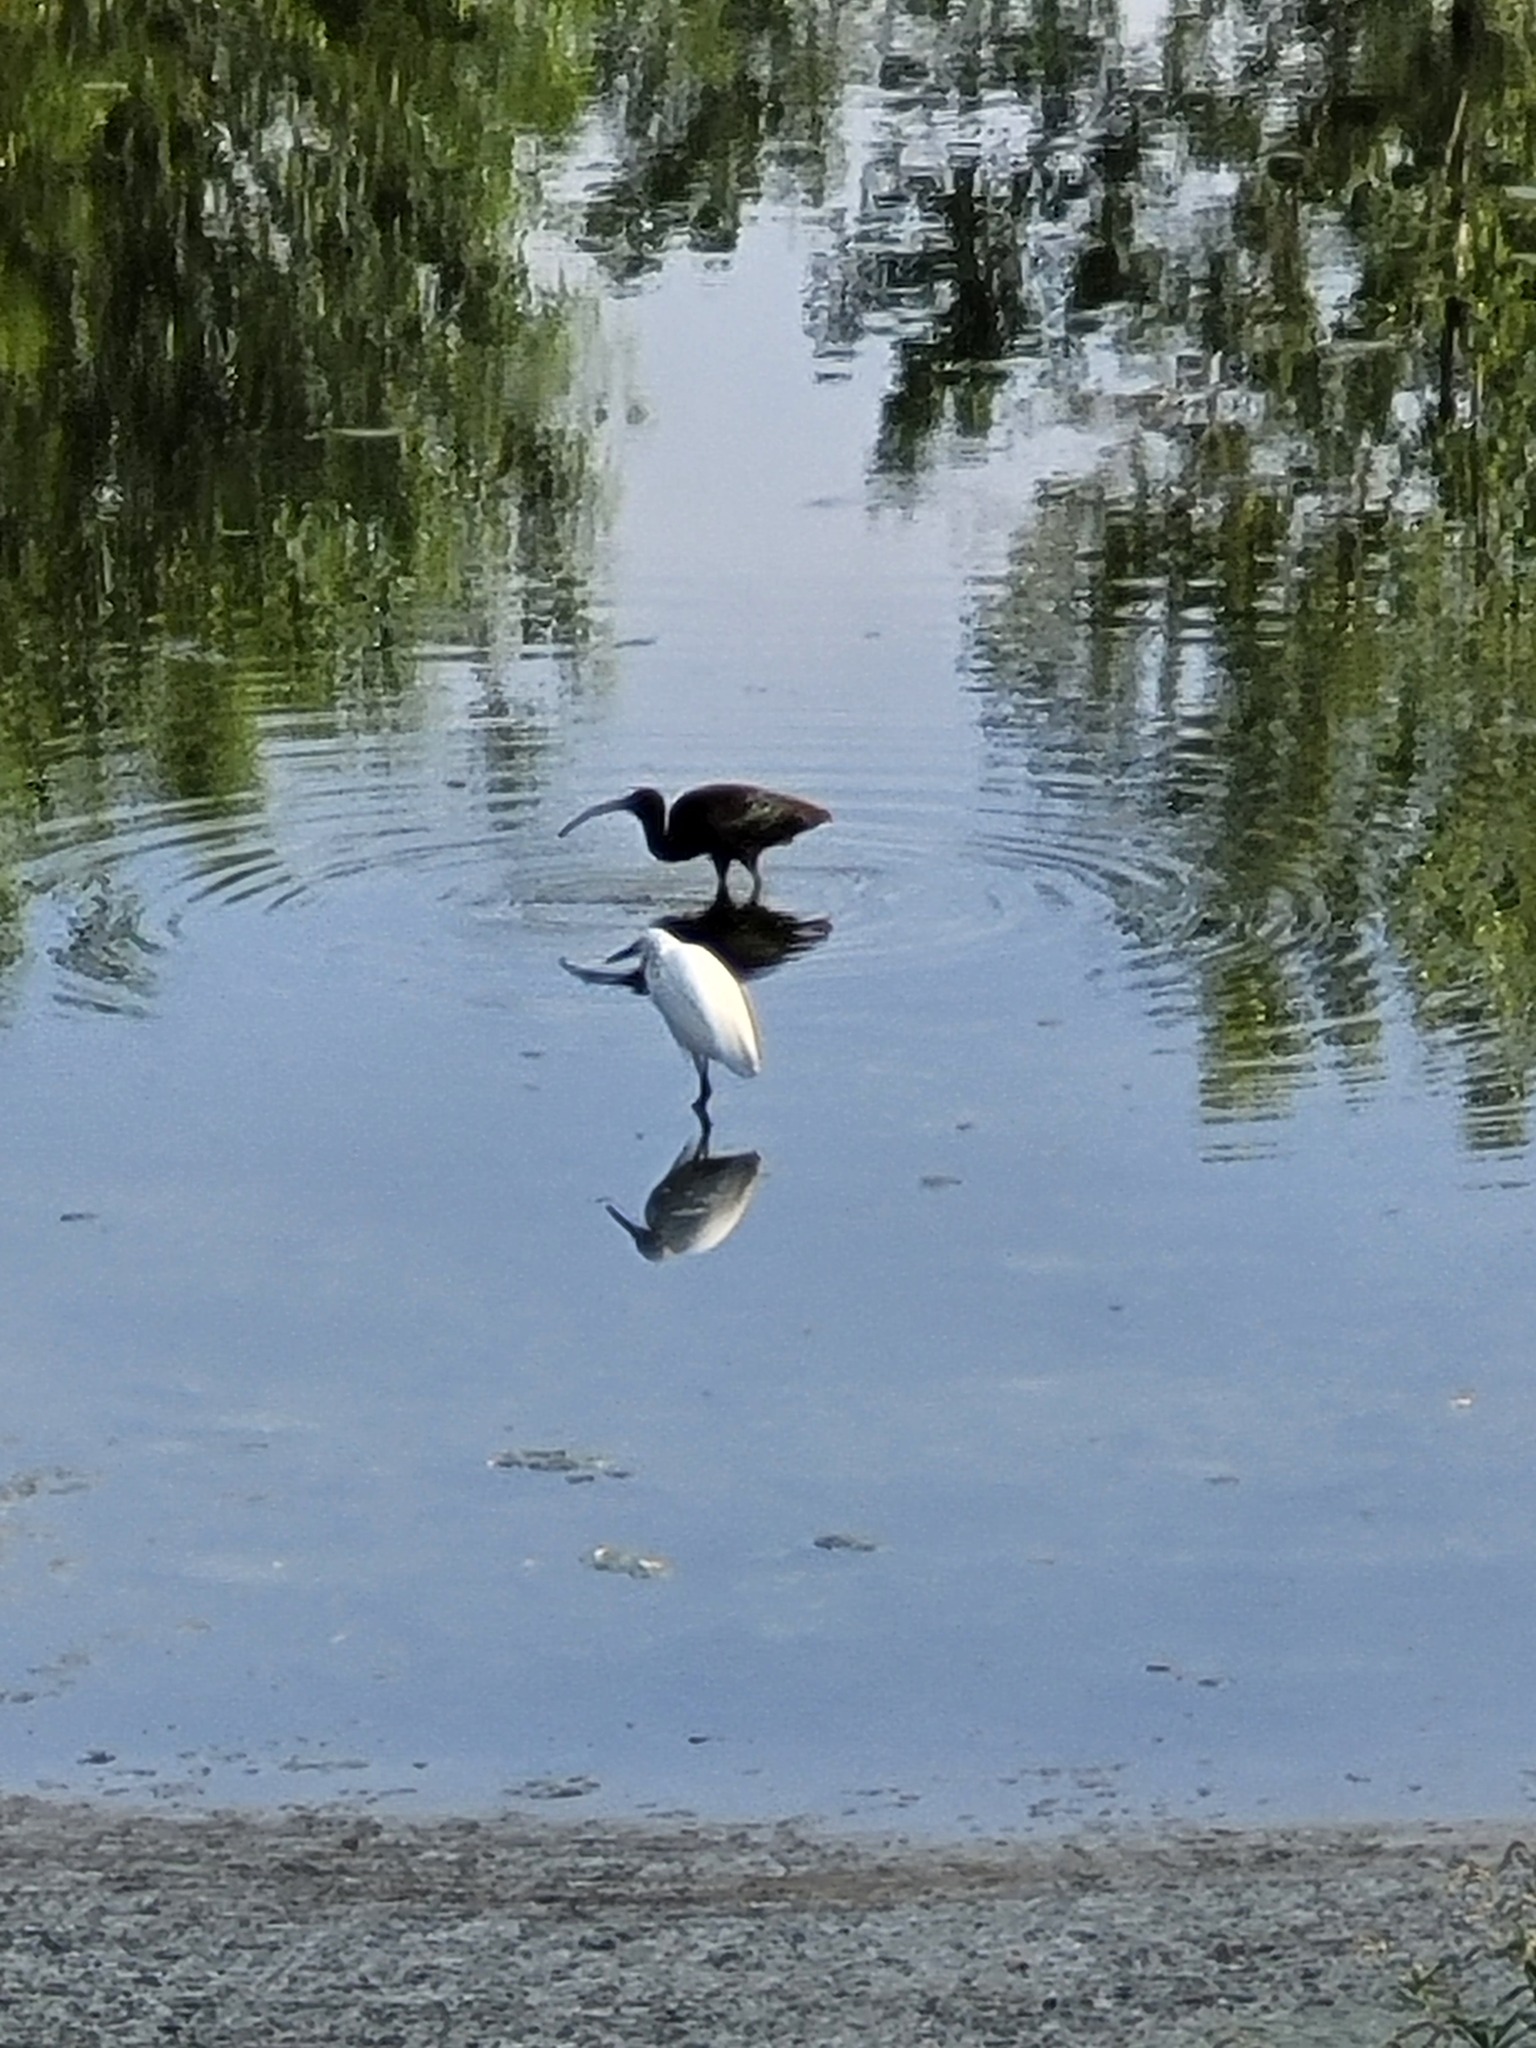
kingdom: Animalia
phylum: Chordata
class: Aves
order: Pelecaniformes
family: Threskiornithidae
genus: Plegadis
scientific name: Plegadis chihi
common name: White-faced ibis
